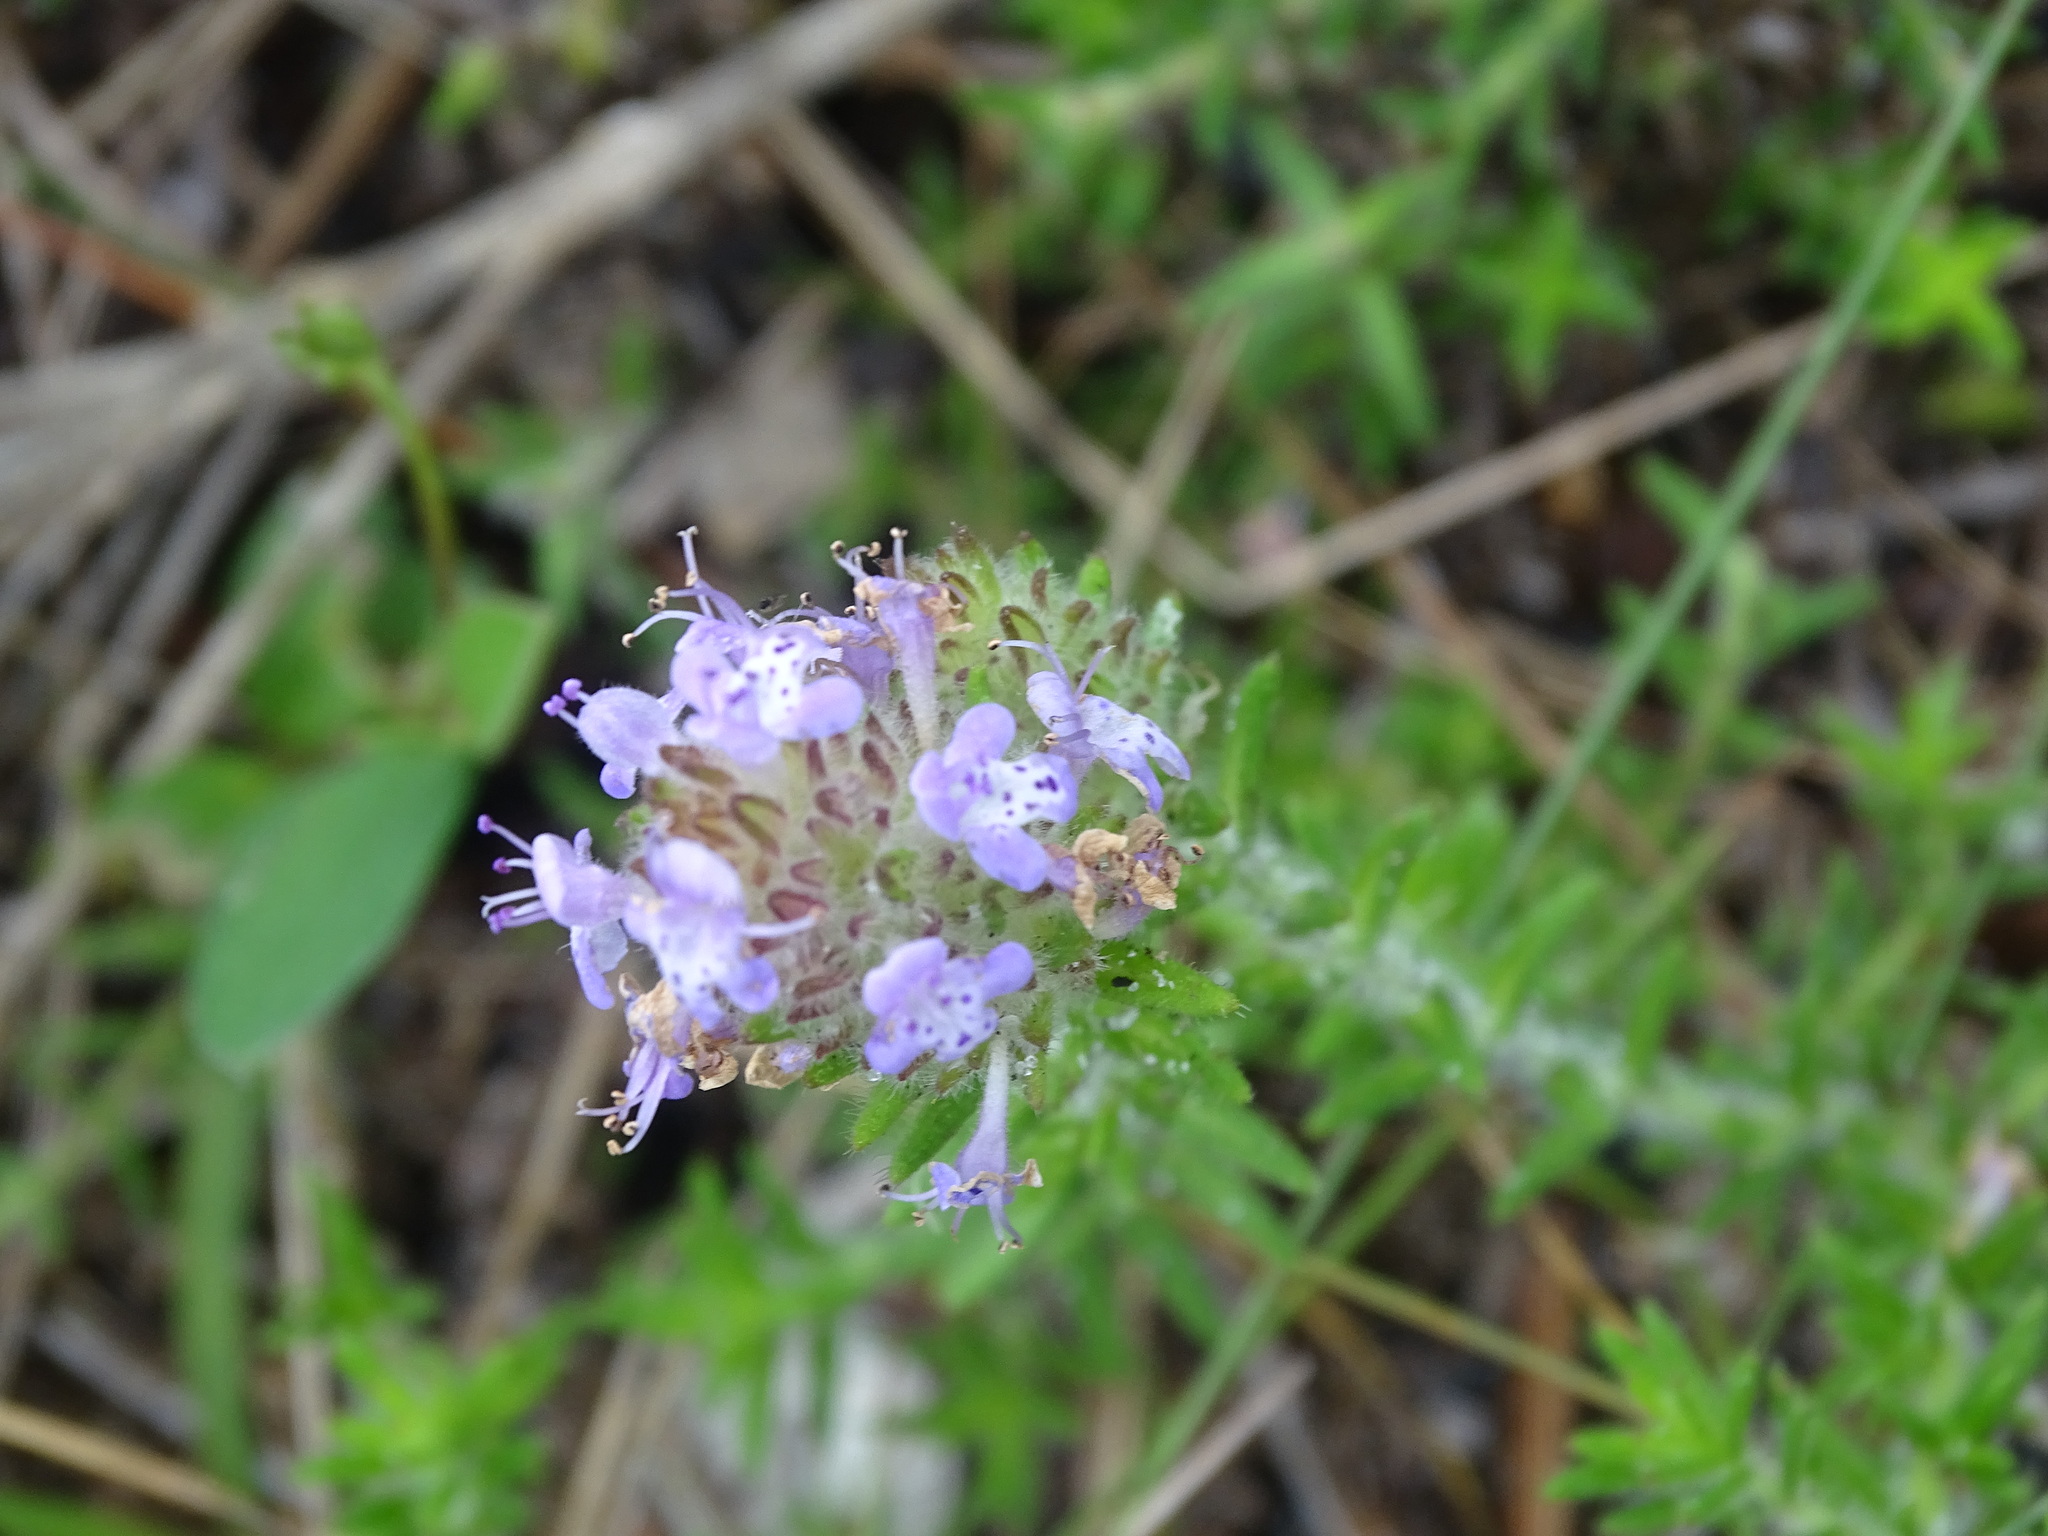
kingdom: Plantae
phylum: Tracheophyta
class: Magnoliopsida
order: Lamiales
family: Lamiaceae
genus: Piloblephis
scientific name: Piloblephis rigida
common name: Wild pennyroyal
